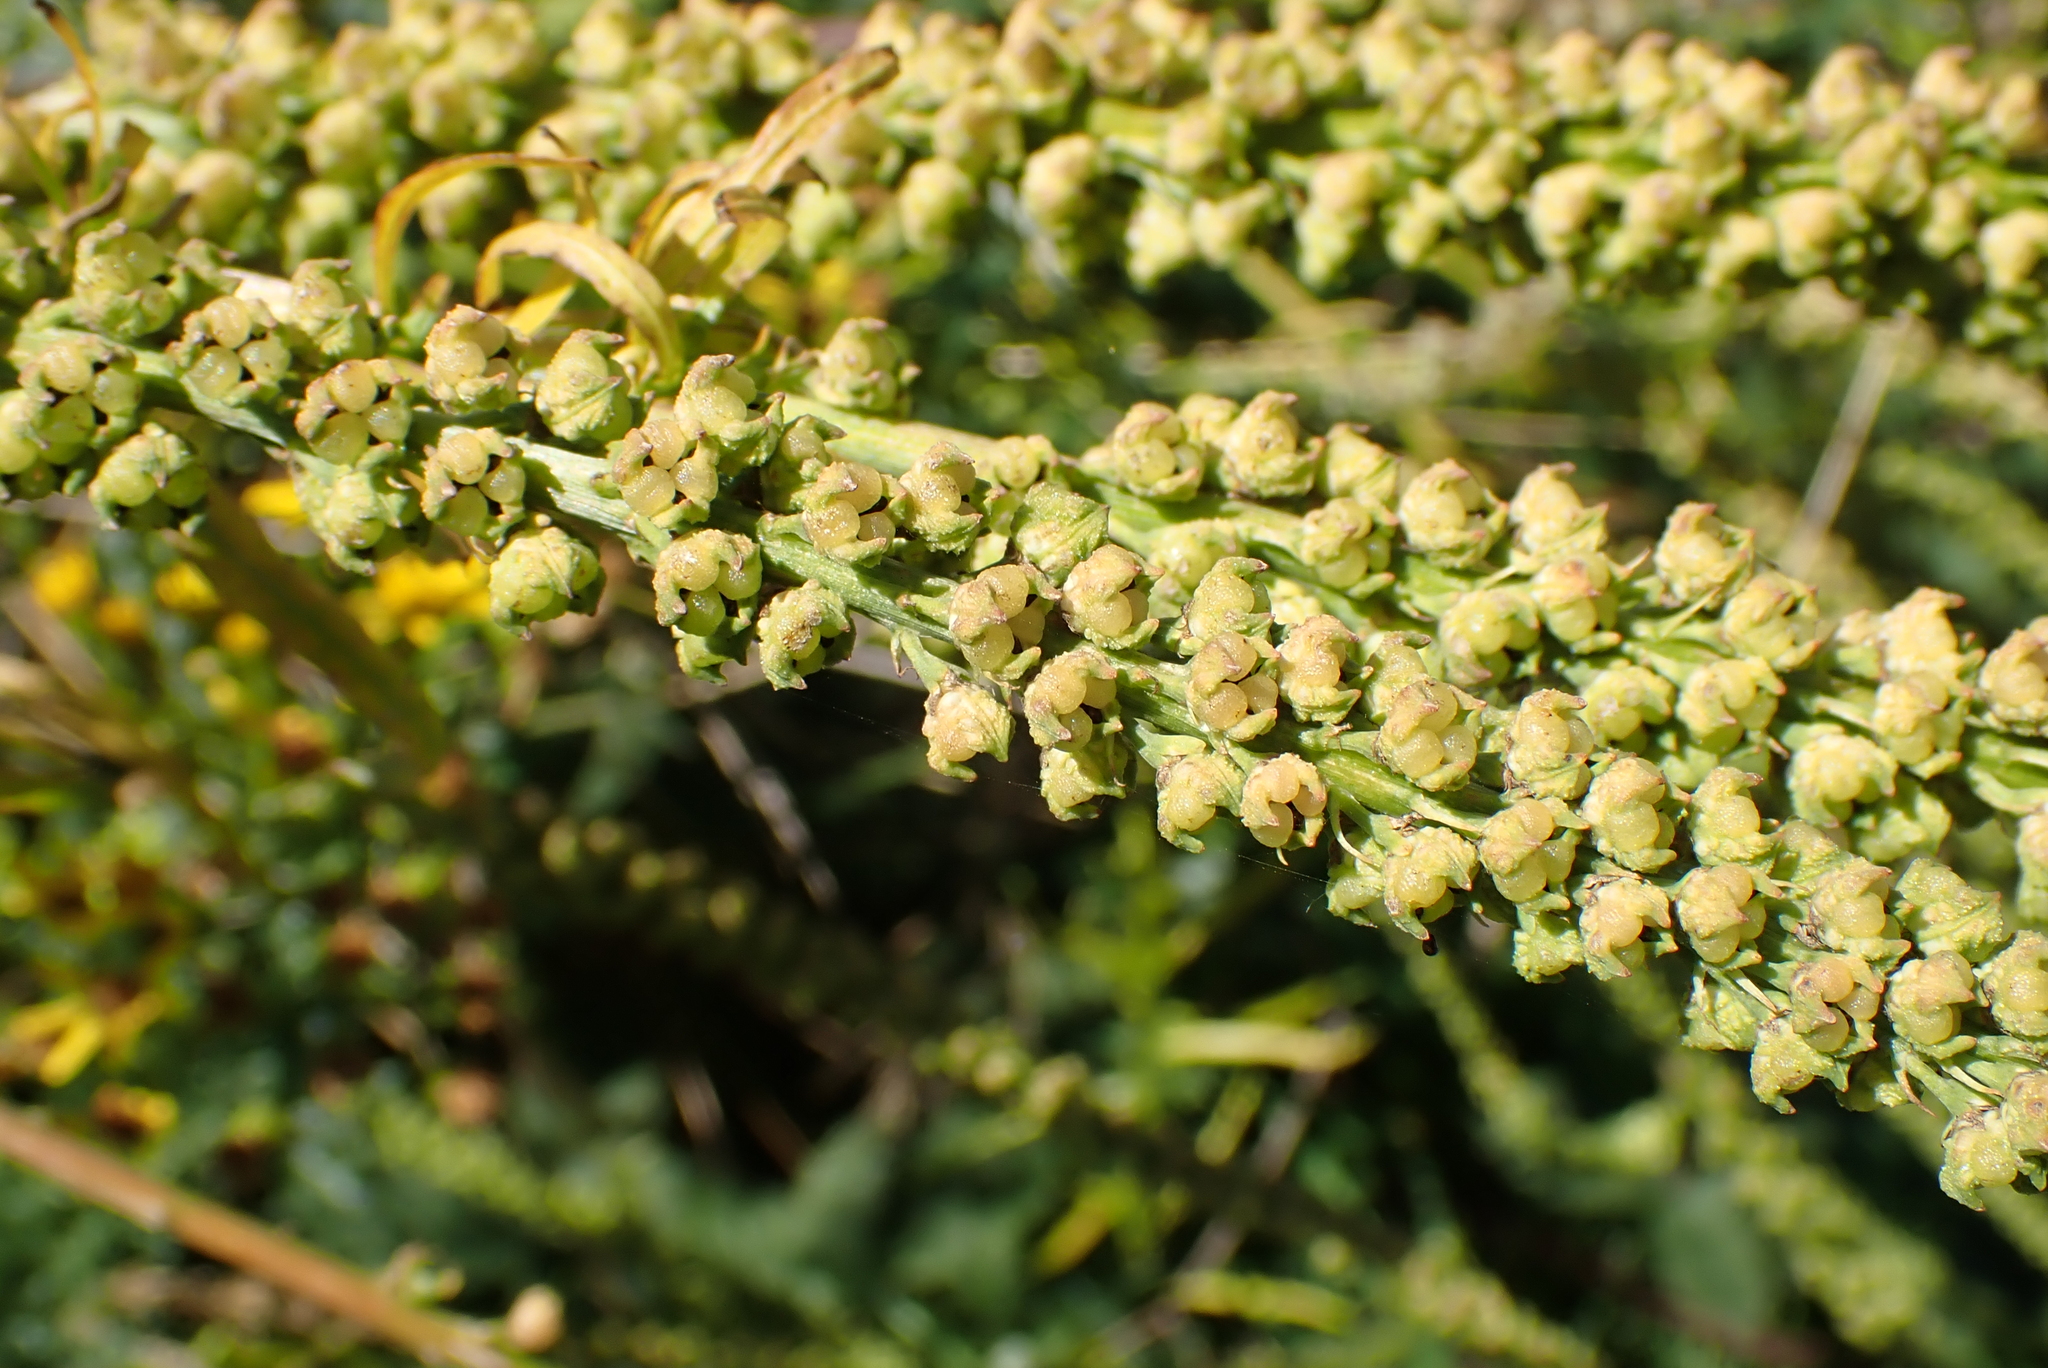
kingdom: Plantae
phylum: Tracheophyta
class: Magnoliopsida
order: Brassicales
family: Resedaceae
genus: Reseda
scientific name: Reseda luteola
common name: Weld
